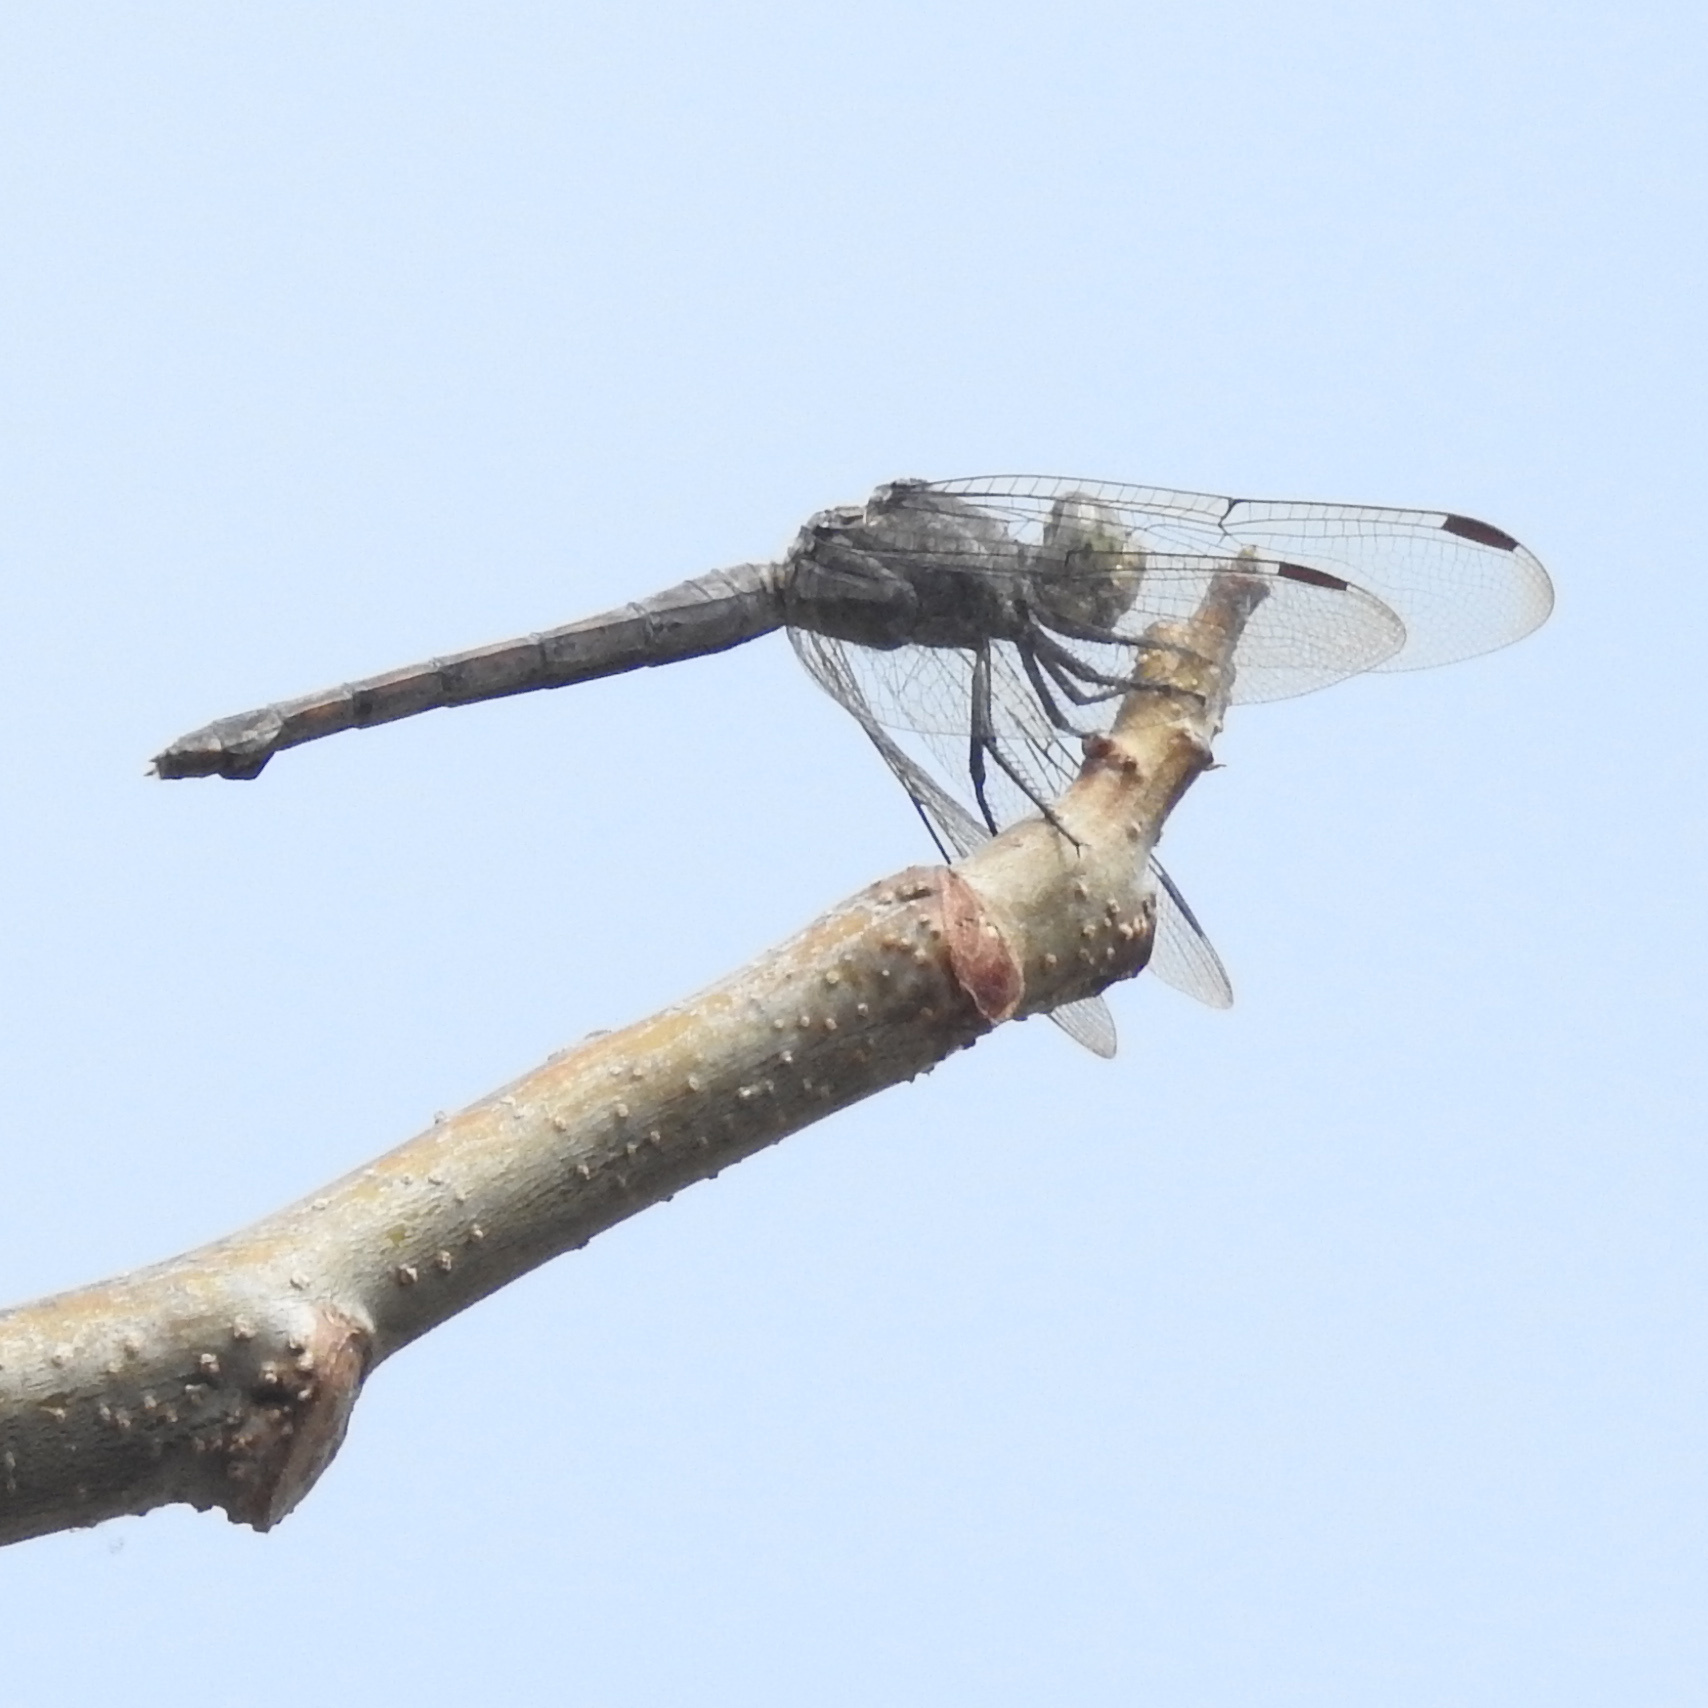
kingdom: Animalia
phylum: Arthropoda
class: Insecta
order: Odonata
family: Libellulidae
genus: Potamarcha
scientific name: Potamarcha congener
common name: Blue chaser
